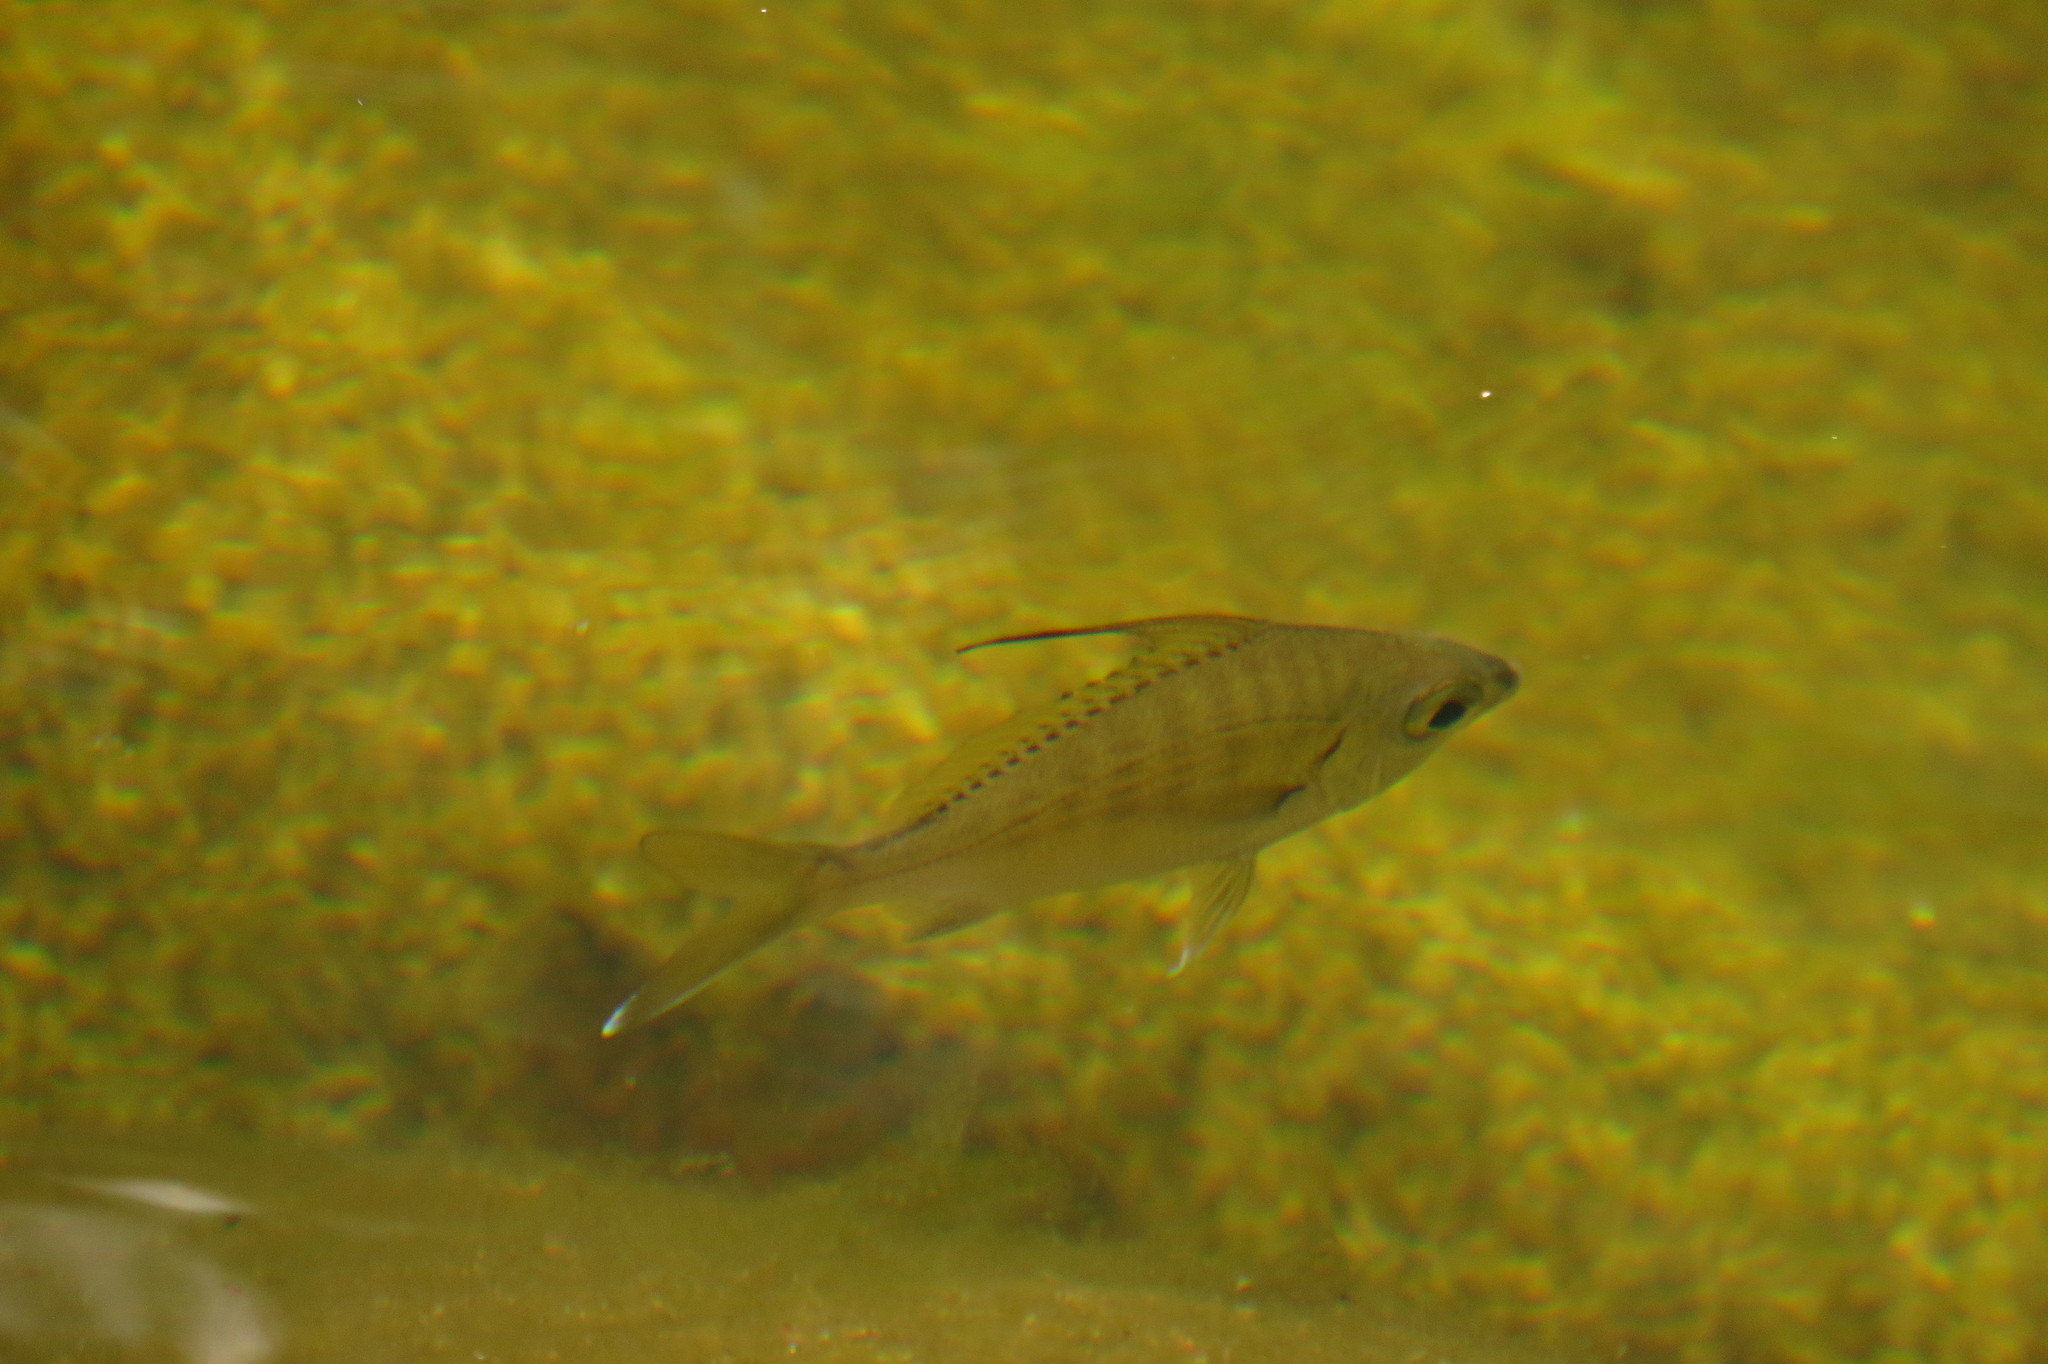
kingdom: Animalia
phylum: Chordata
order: Perciformes
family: Gerreidae
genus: Gerres
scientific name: Gerres filamentosus
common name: Whipfin silverbiddy
